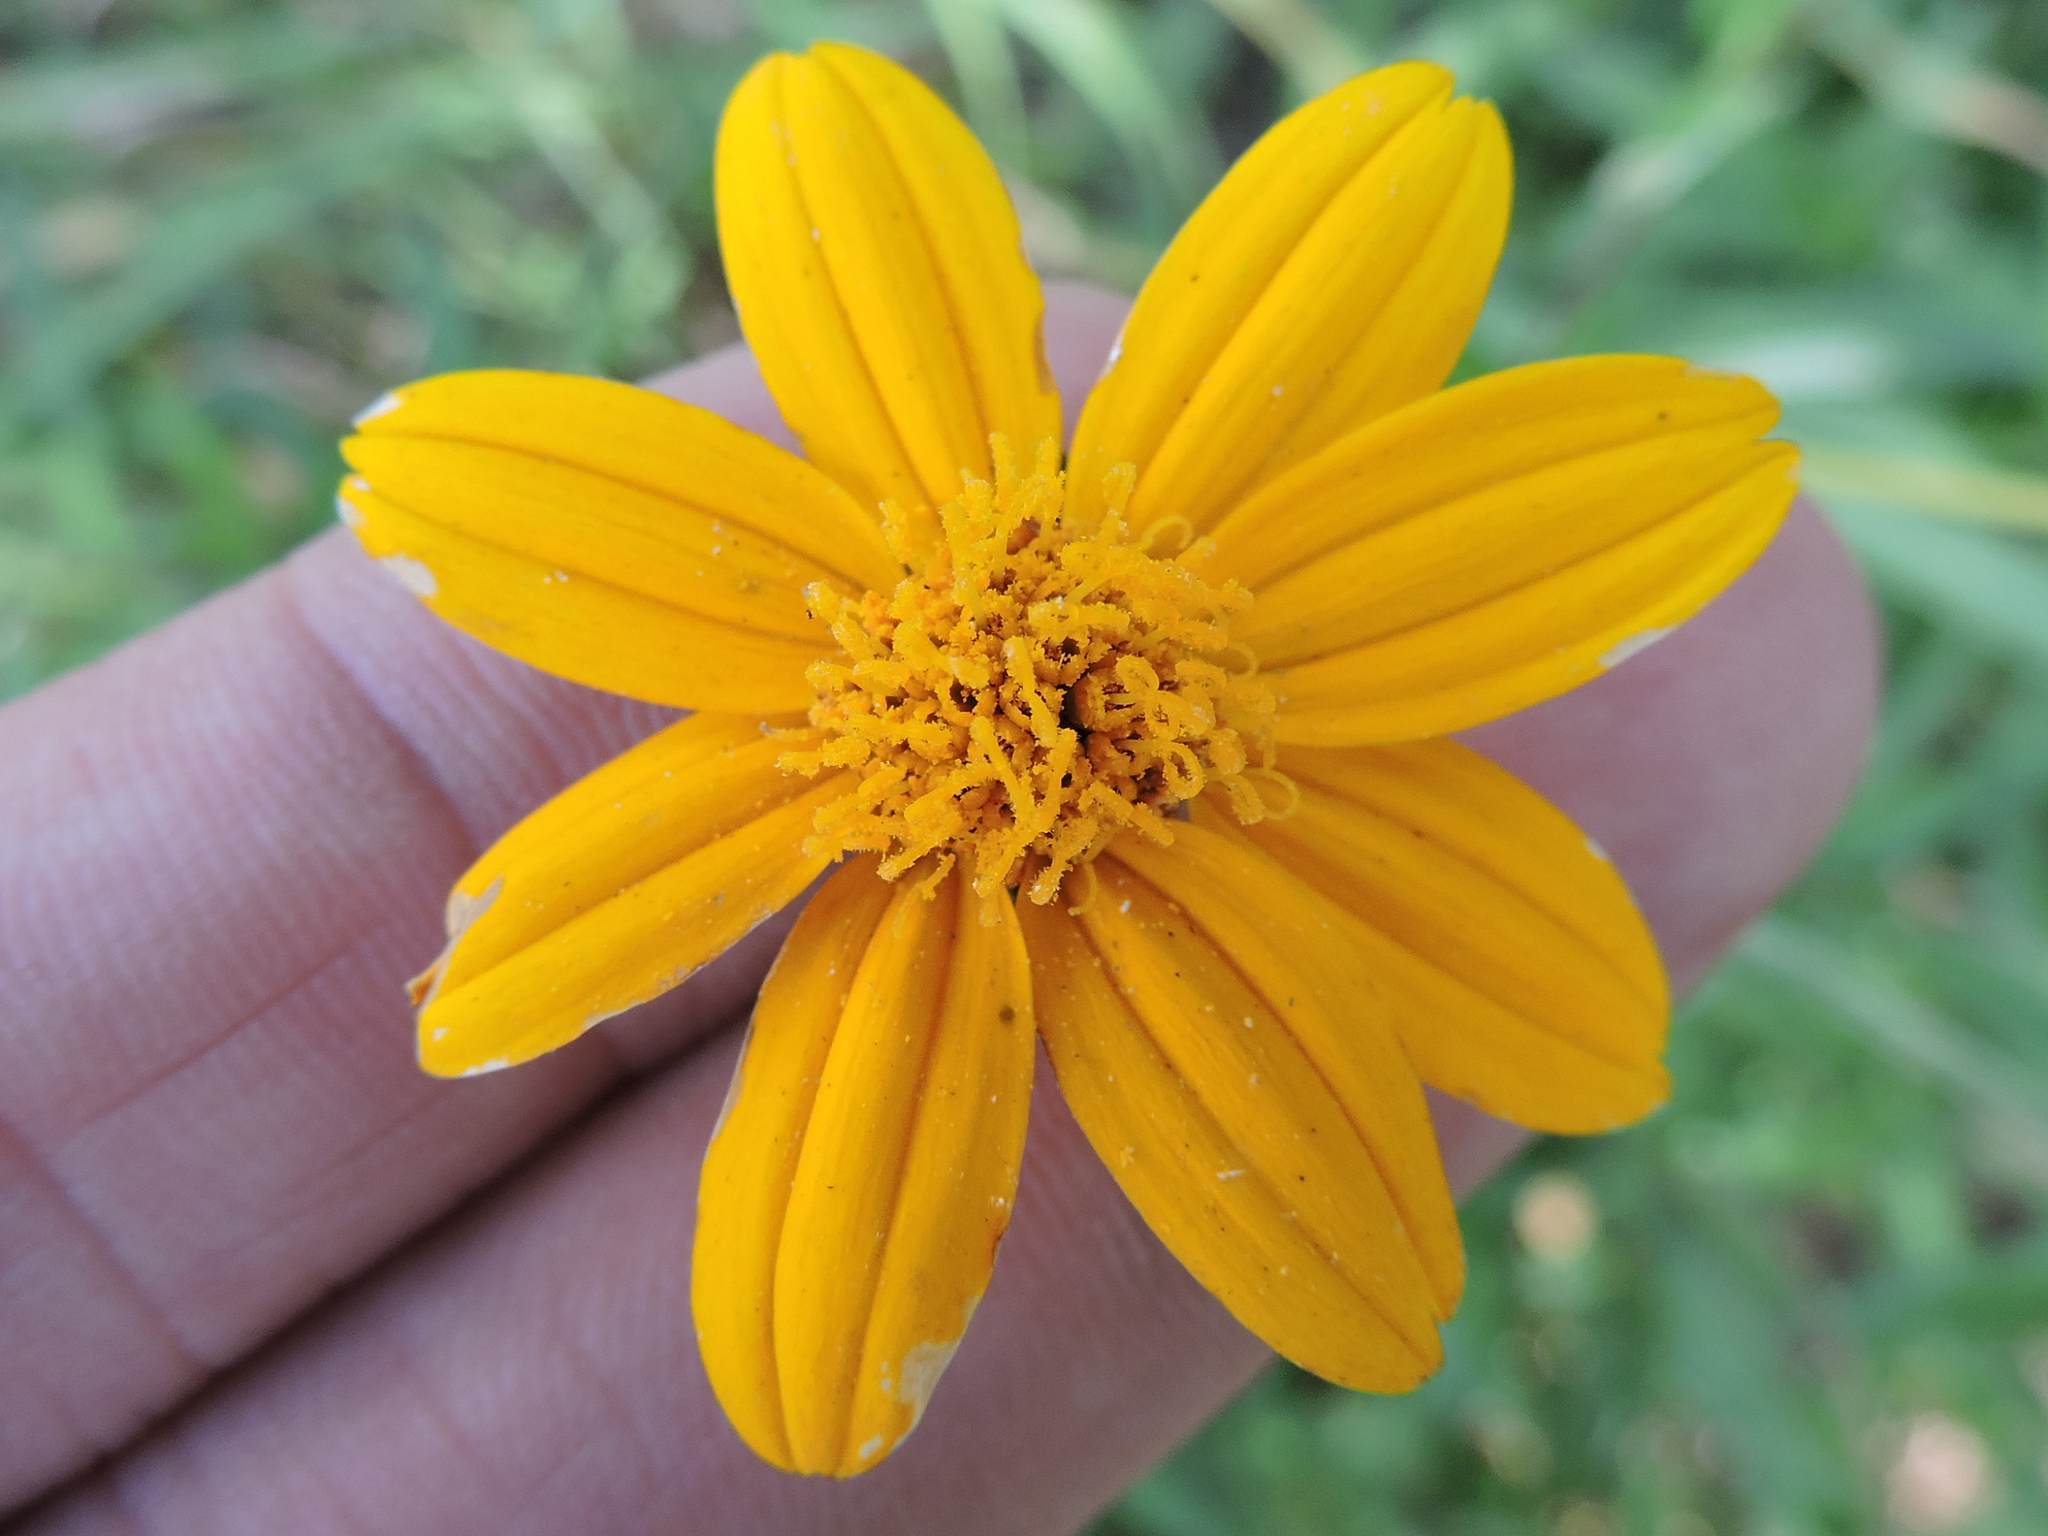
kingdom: Plantae
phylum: Tracheophyta
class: Magnoliopsida
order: Asterales
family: Asteraceae
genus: Wedelia
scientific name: Wedelia acapulcensis
